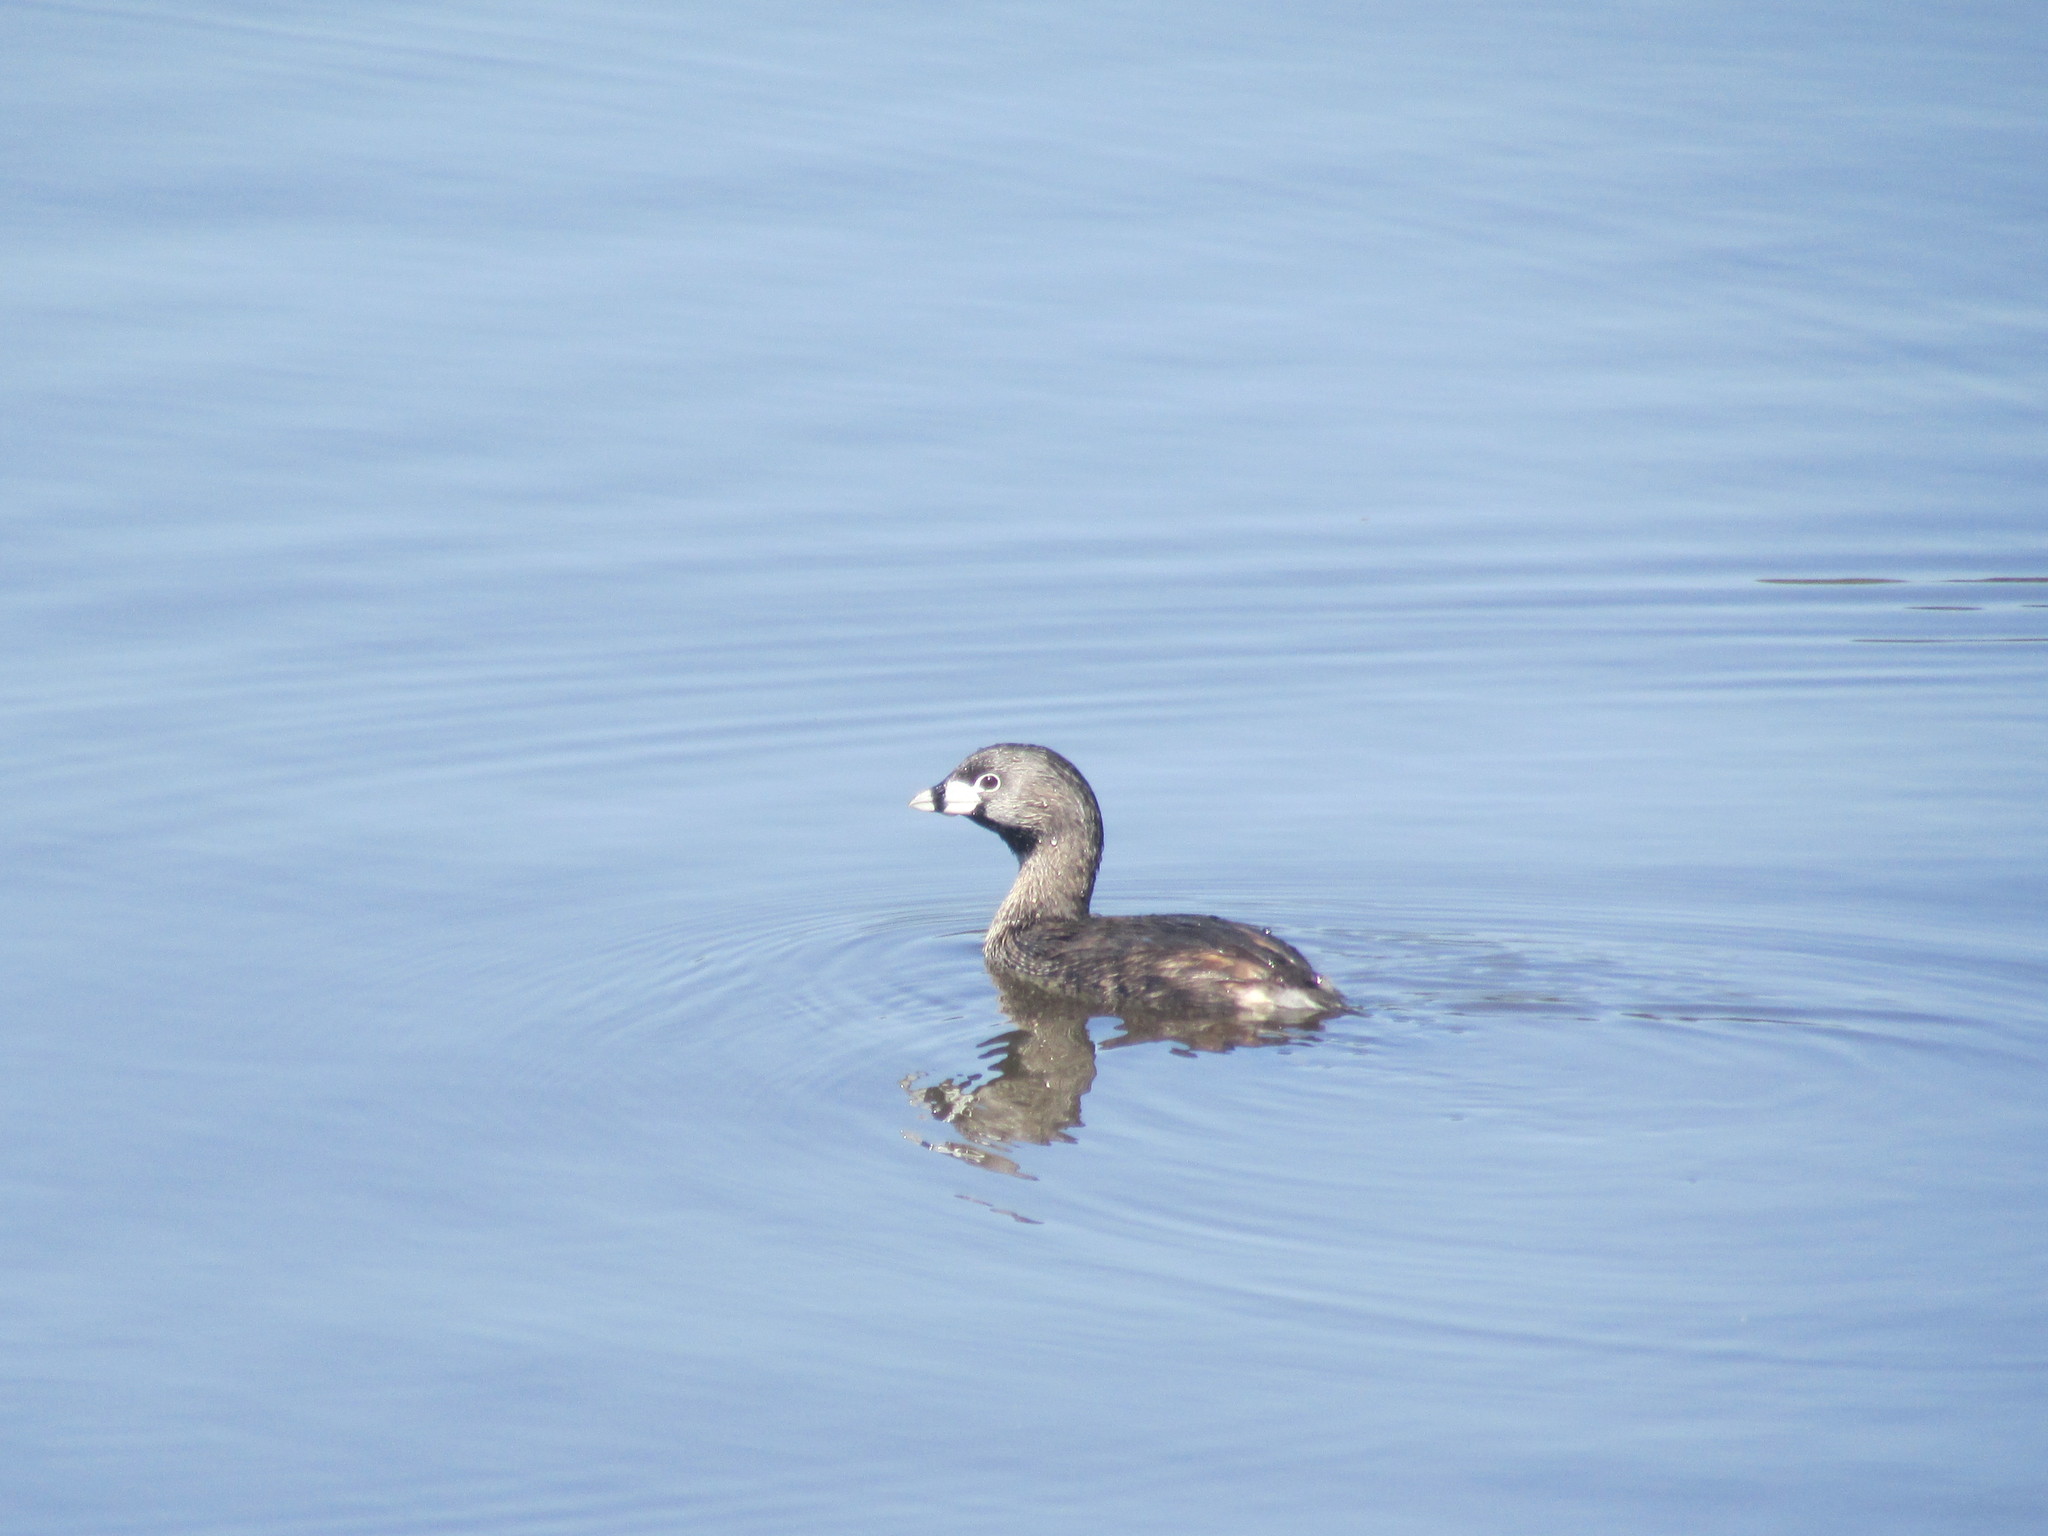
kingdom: Animalia
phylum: Chordata
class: Aves
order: Podicipediformes
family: Podicipedidae
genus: Podilymbus
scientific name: Podilymbus podiceps
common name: Pied-billed grebe
